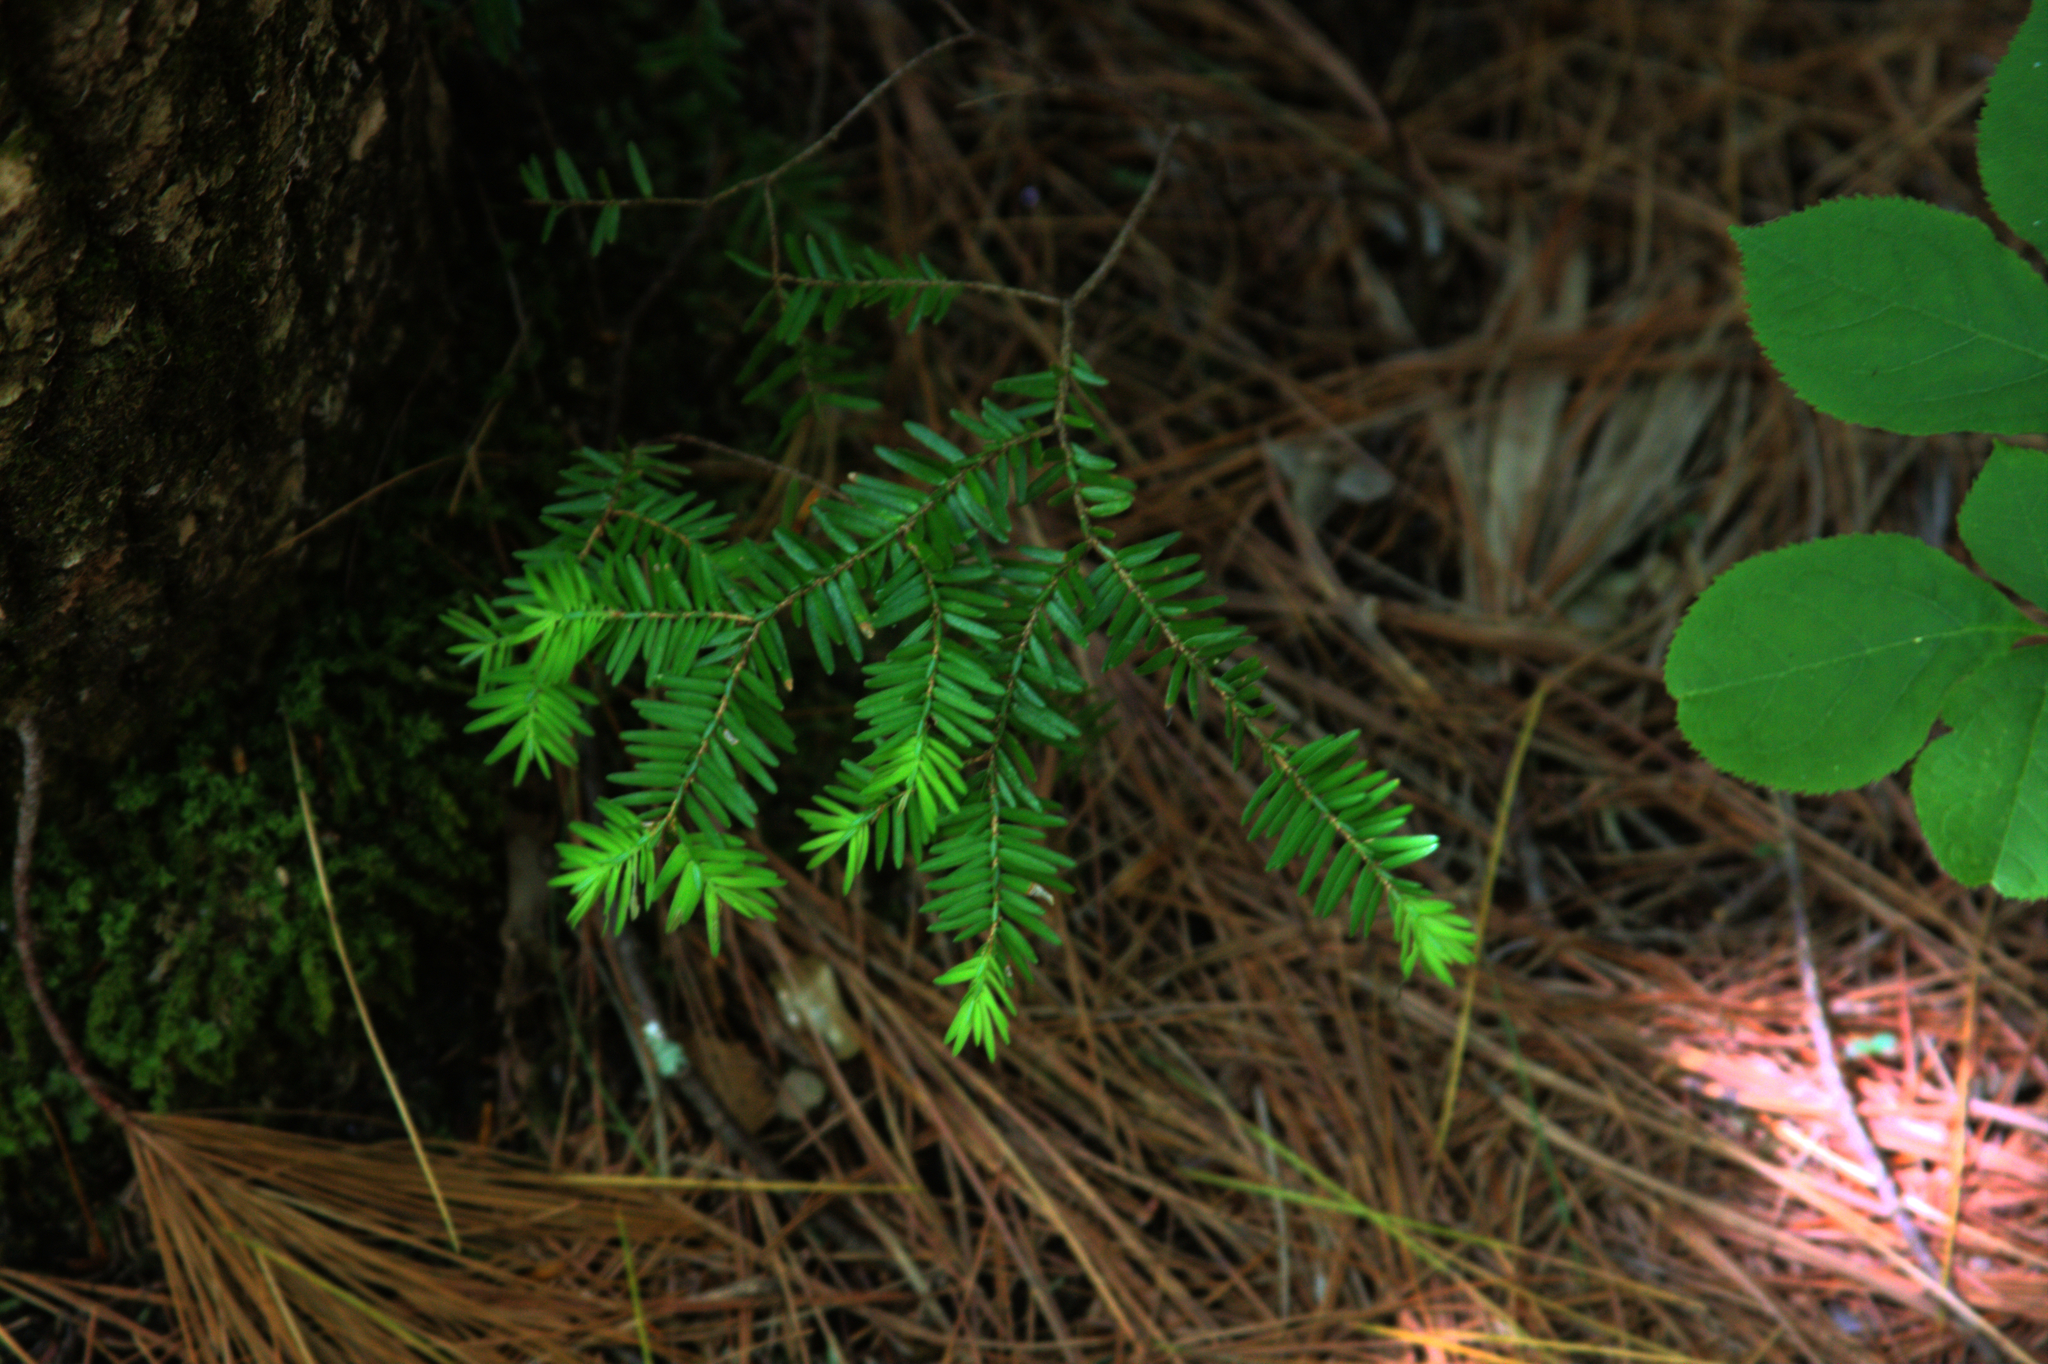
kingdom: Plantae
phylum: Tracheophyta
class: Pinopsida
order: Pinales
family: Pinaceae
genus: Tsuga
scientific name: Tsuga canadensis
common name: Eastern hemlock
